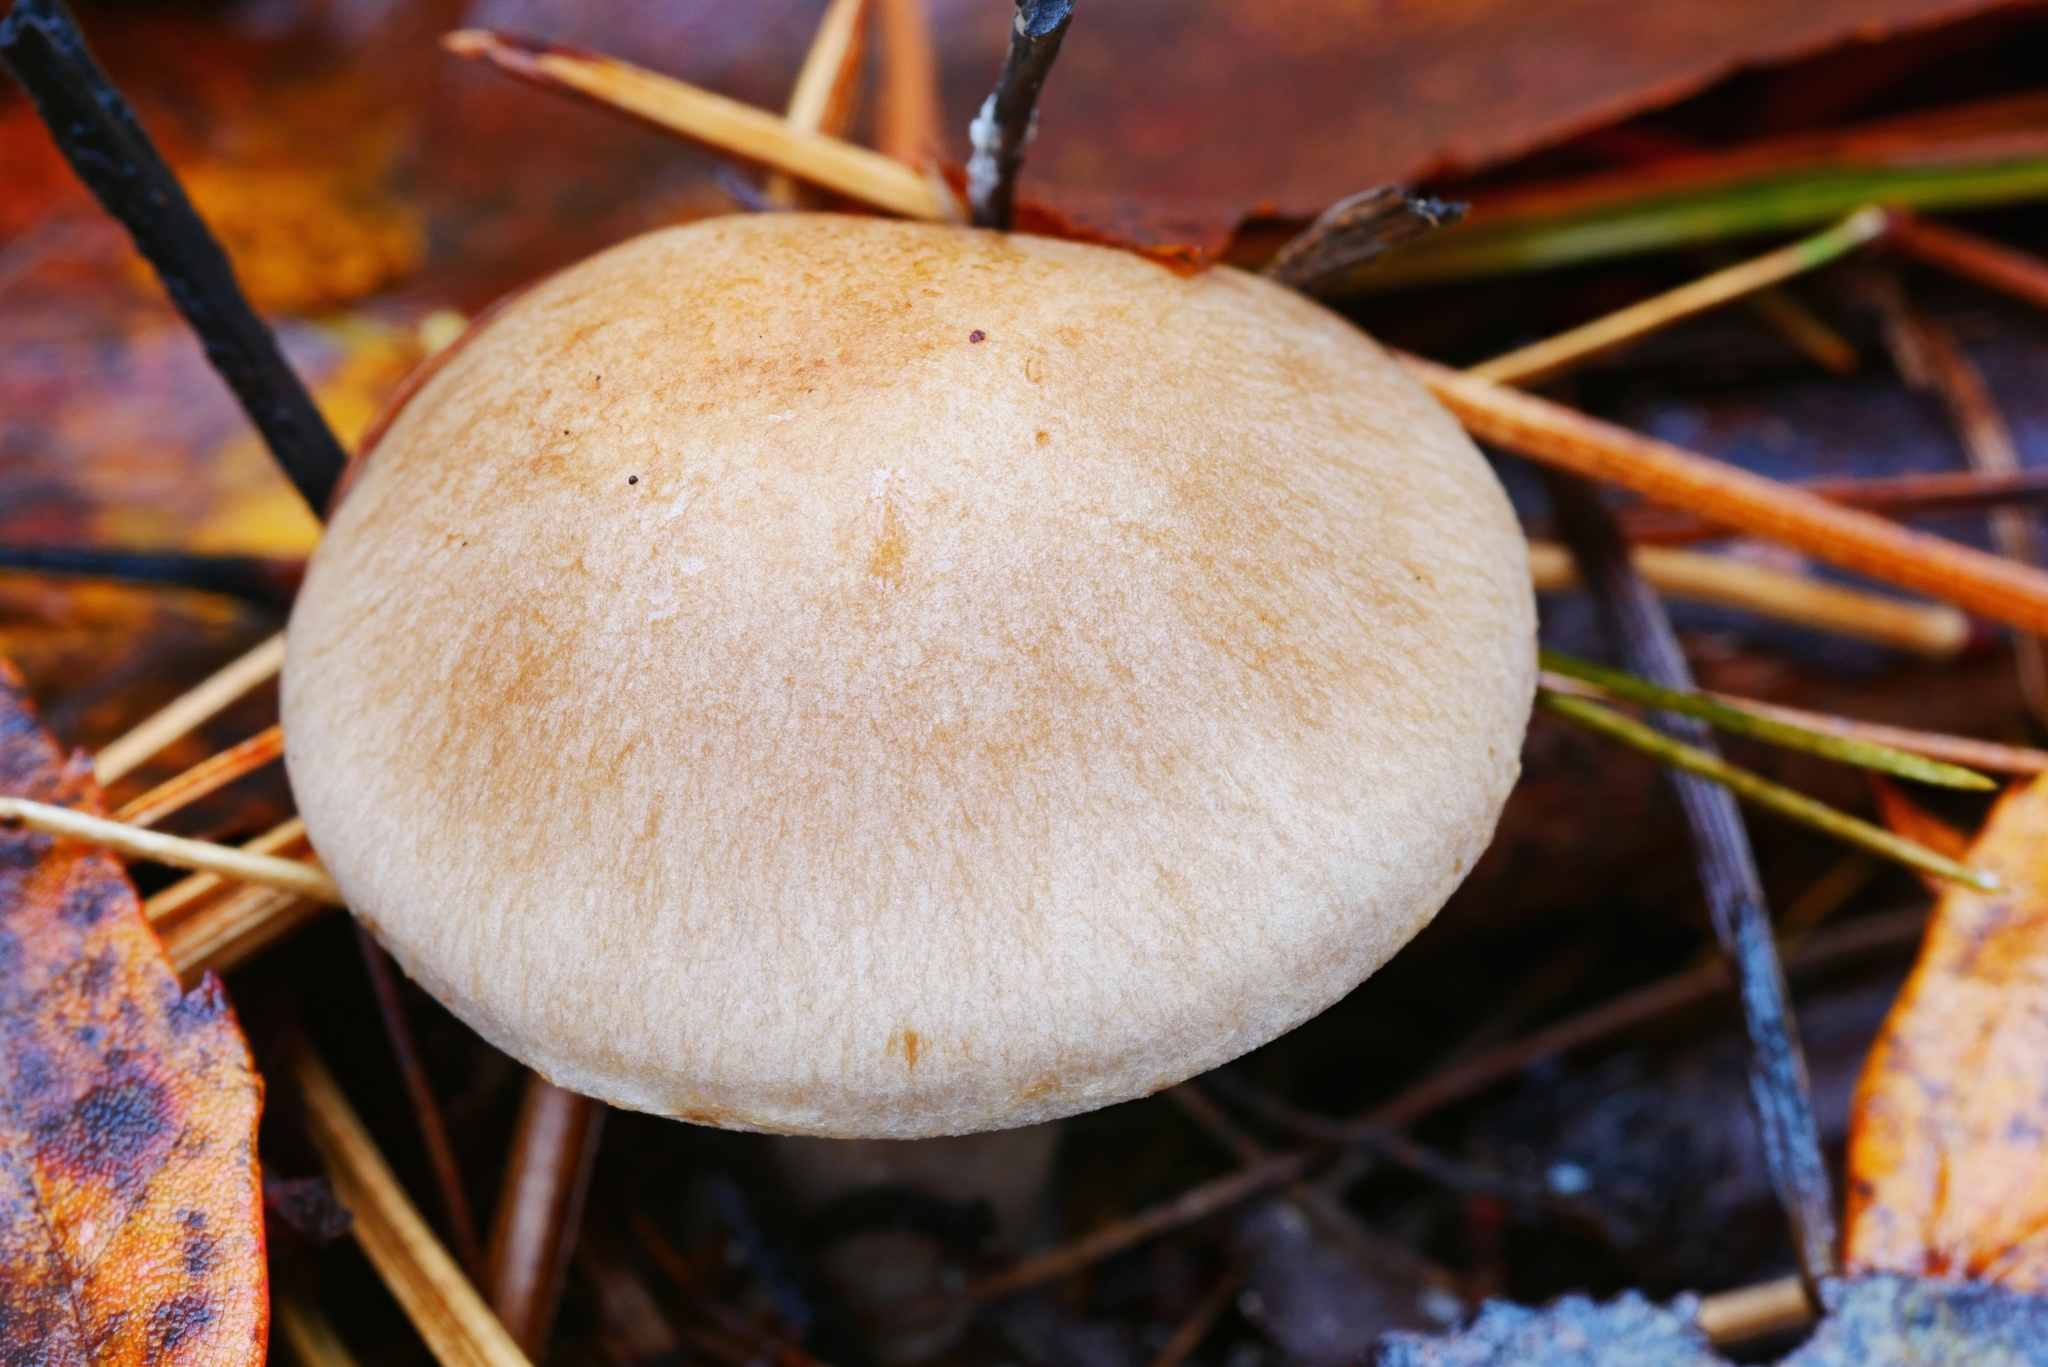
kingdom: Fungi
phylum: Basidiomycota
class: Agaricomycetes
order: Agaricales
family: Cortinariaceae
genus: Cortinarius
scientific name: Cortinarius nettieae
